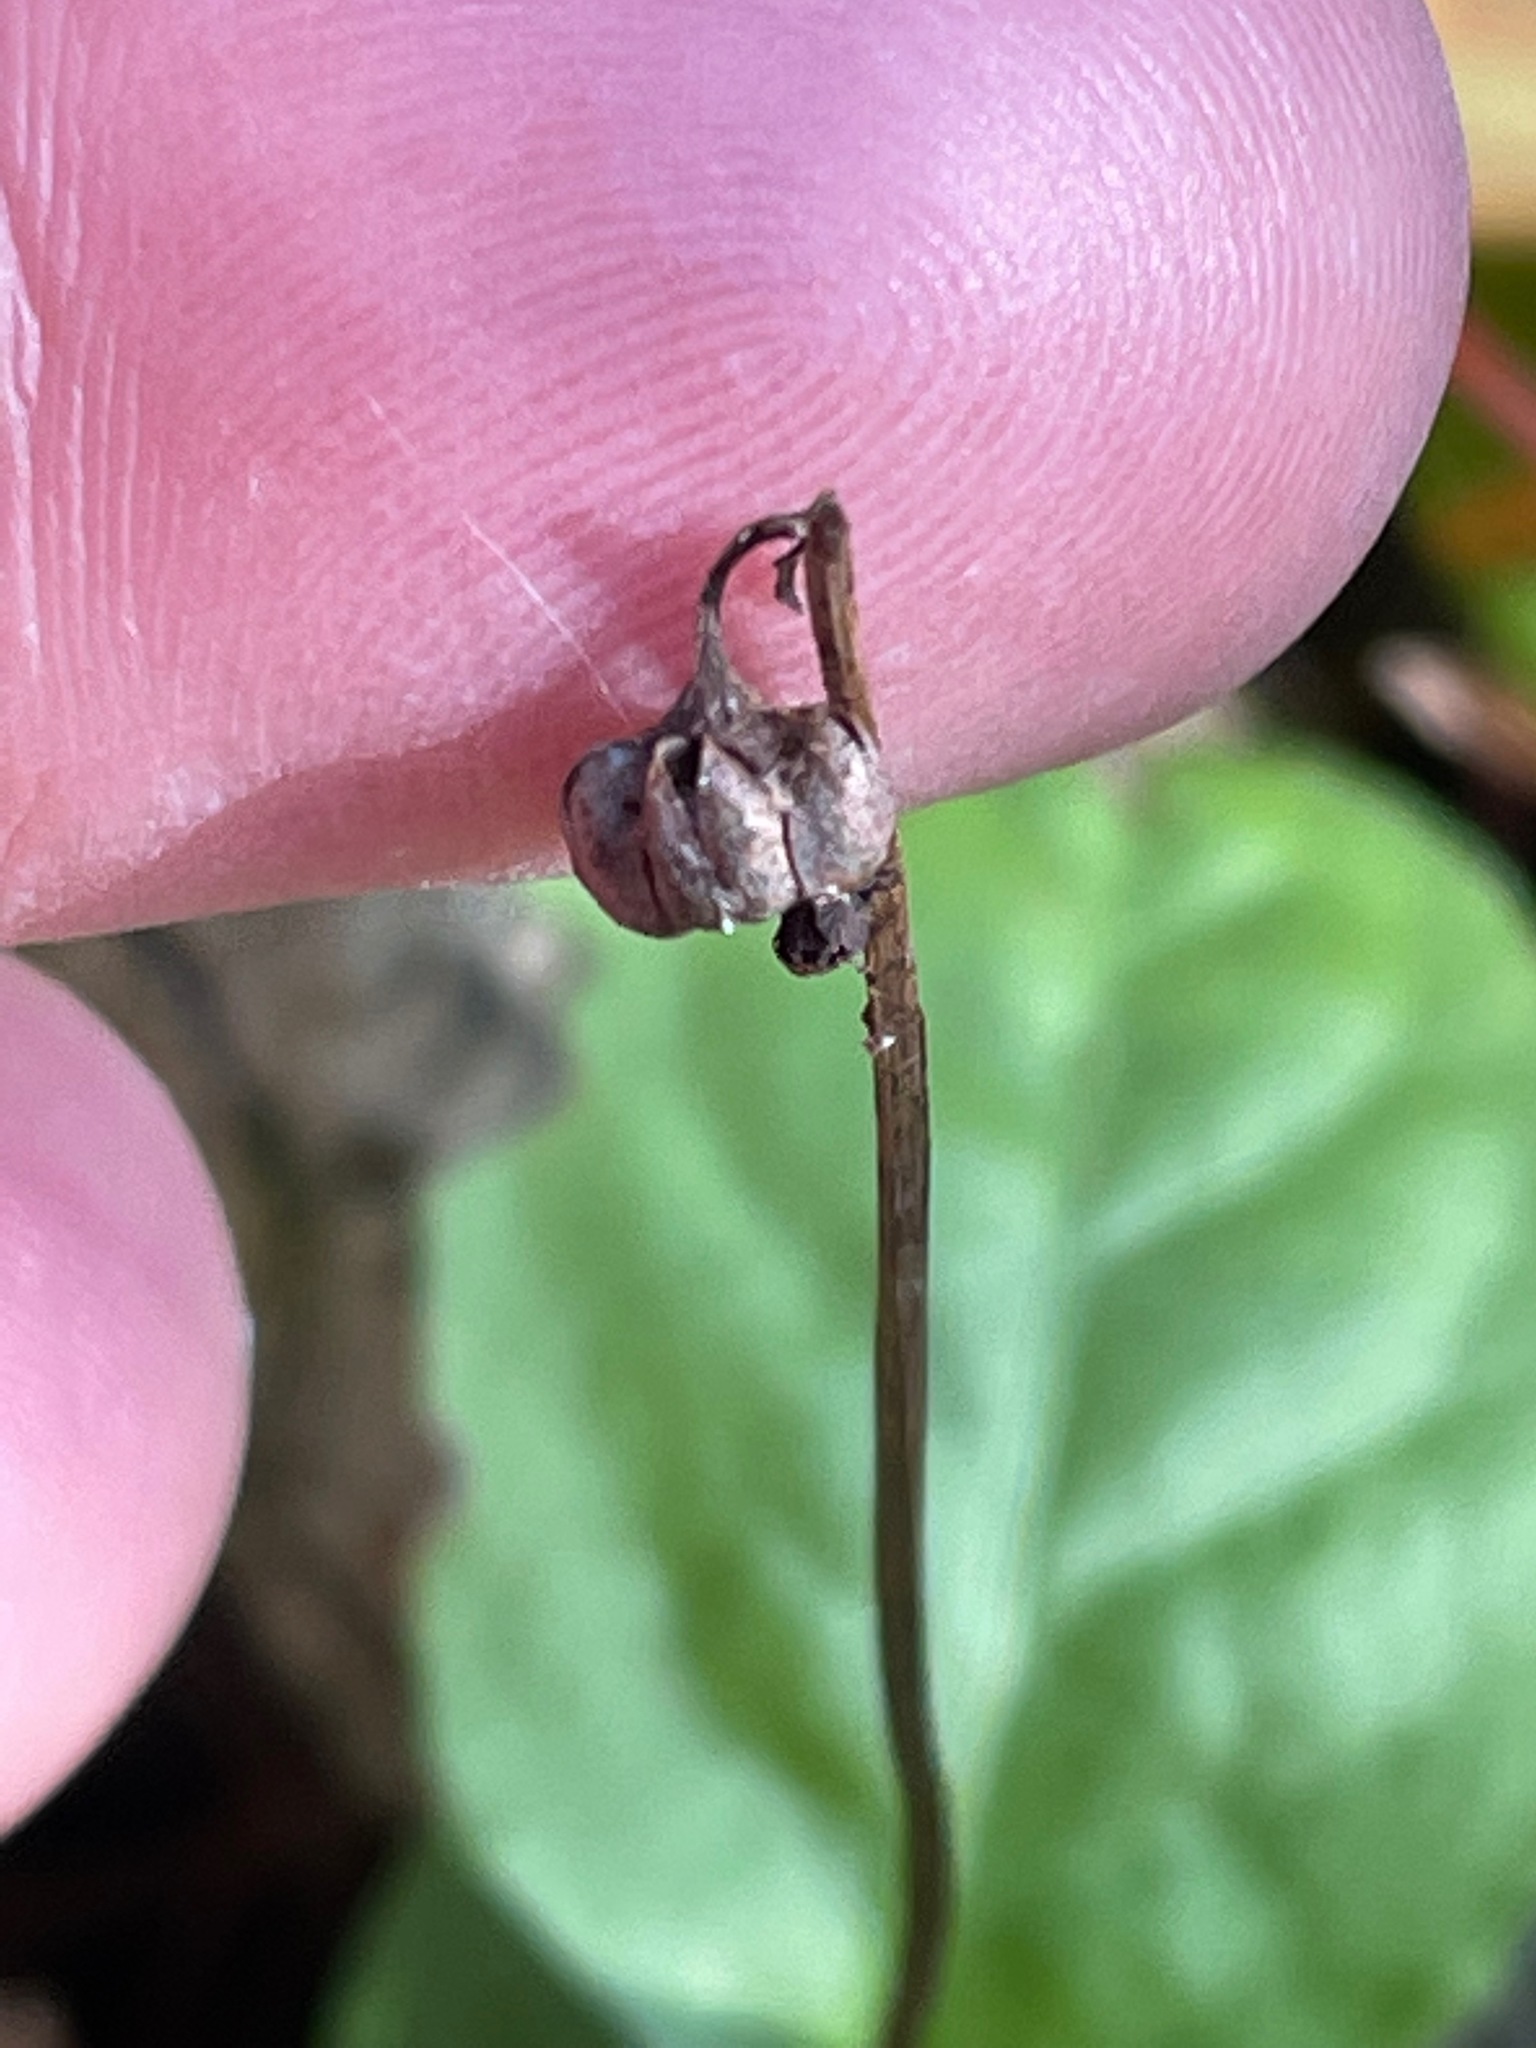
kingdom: Plantae
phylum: Tracheophyta
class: Magnoliopsida
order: Ericales
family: Ericaceae
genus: Pyrola
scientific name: Pyrola elliptica
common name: Shinleaf
